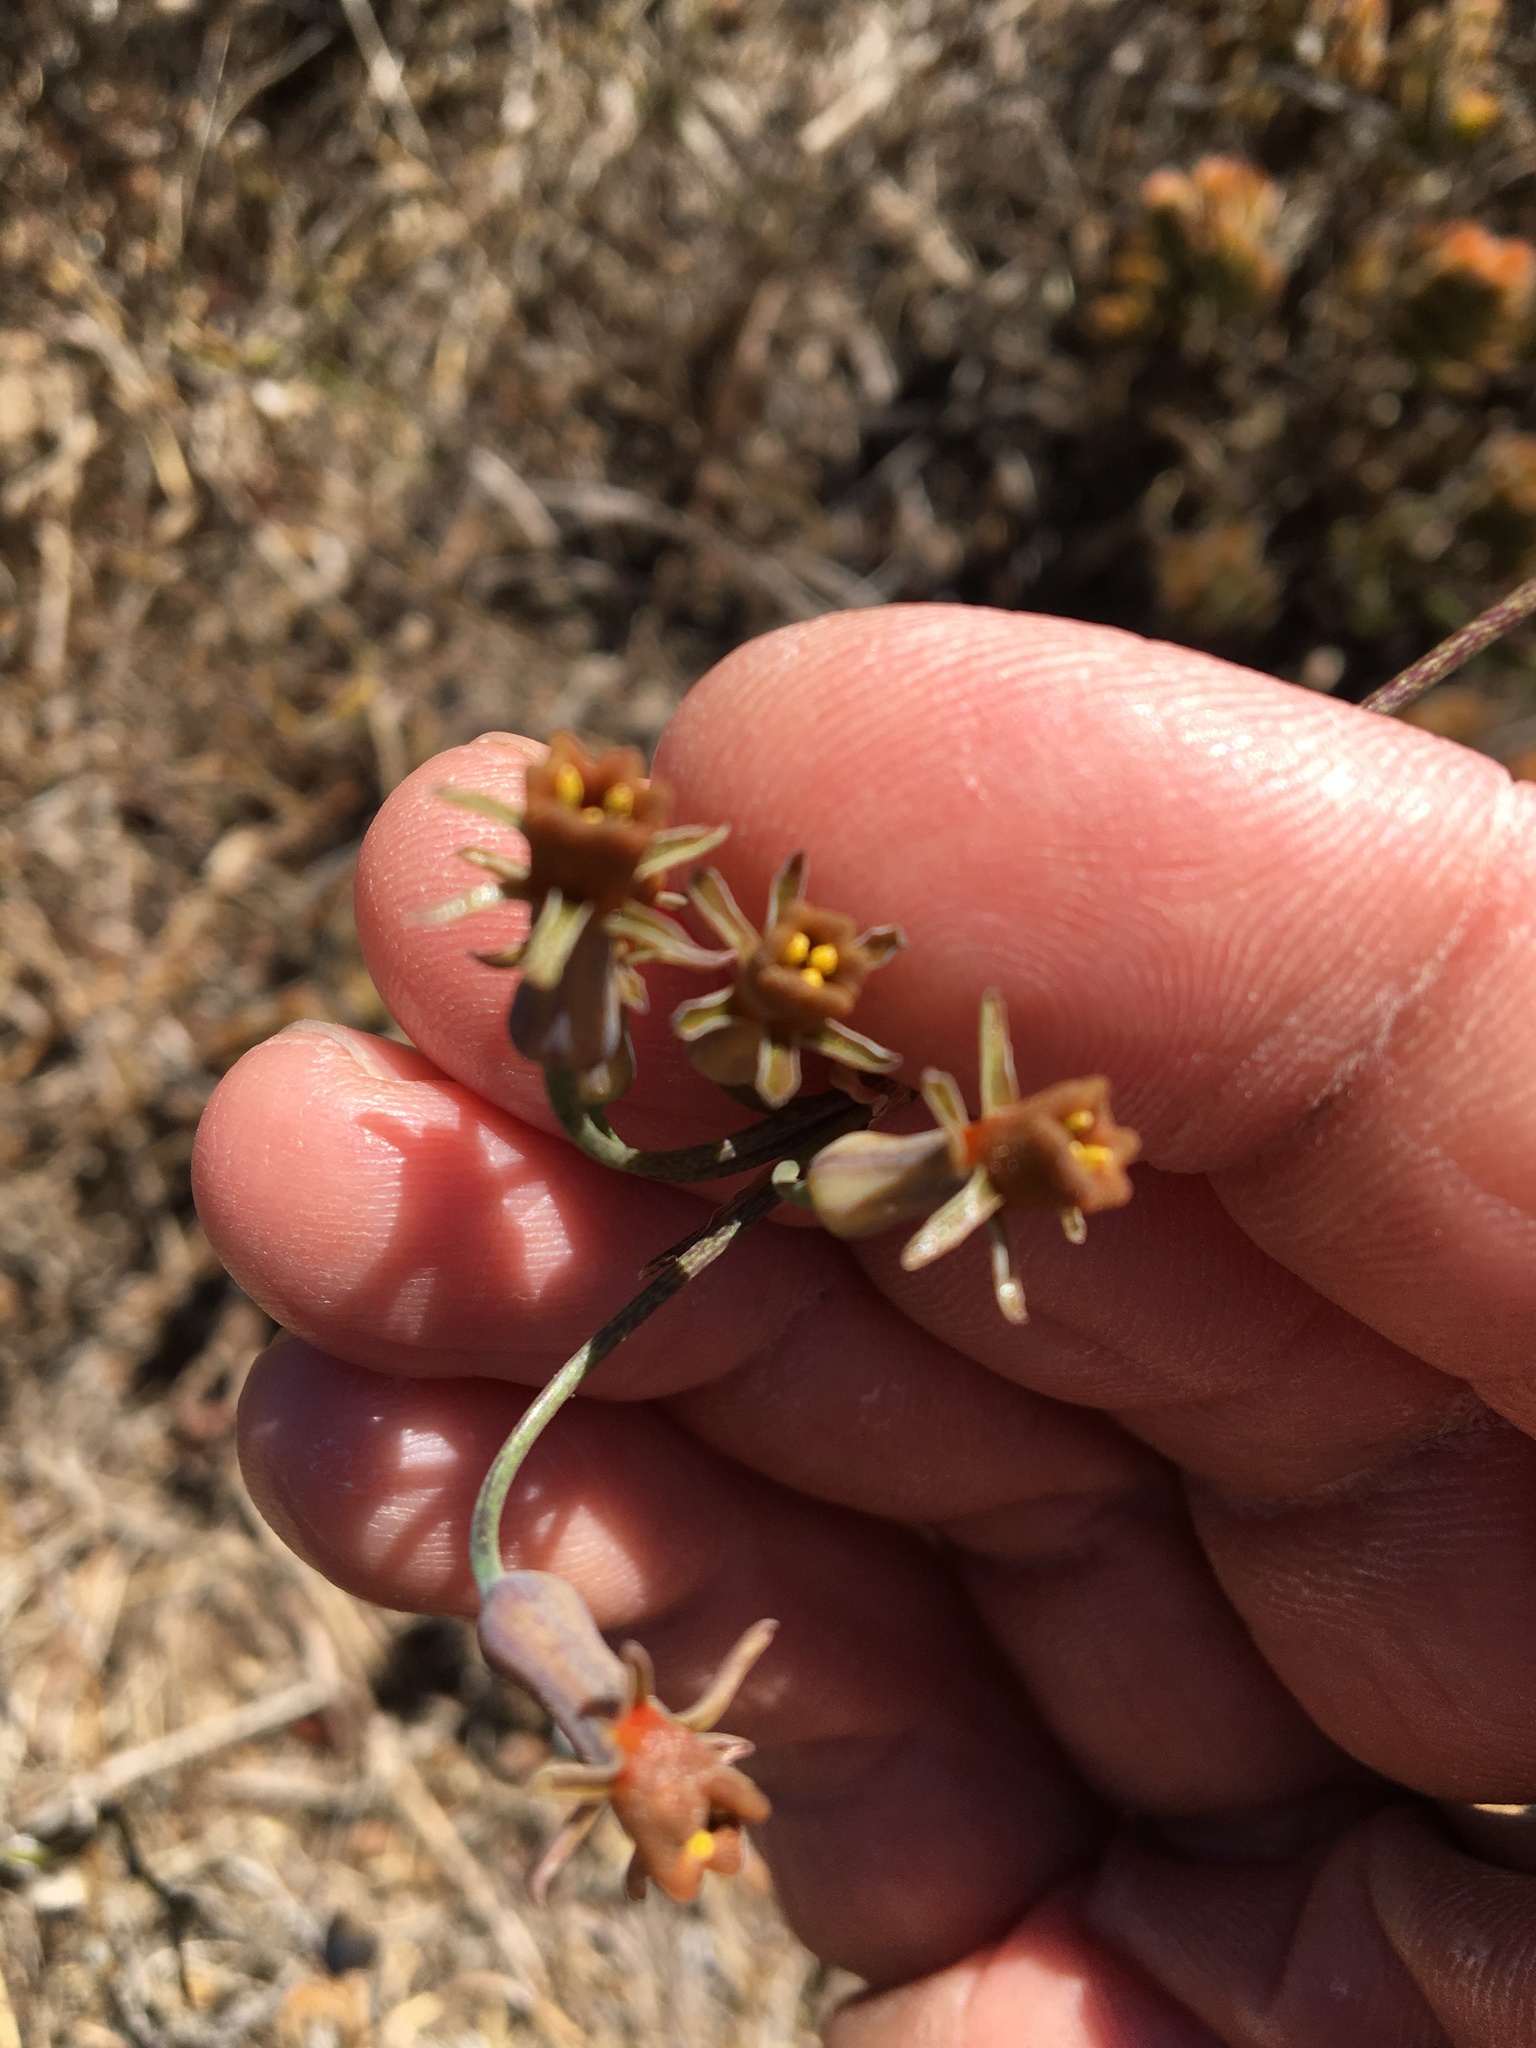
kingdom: Plantae
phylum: Tracheophyta
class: Liliopsida
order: Asparagales
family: Amaryllidaceae
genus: Tulbaghia
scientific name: Tulbaghia alliacea
